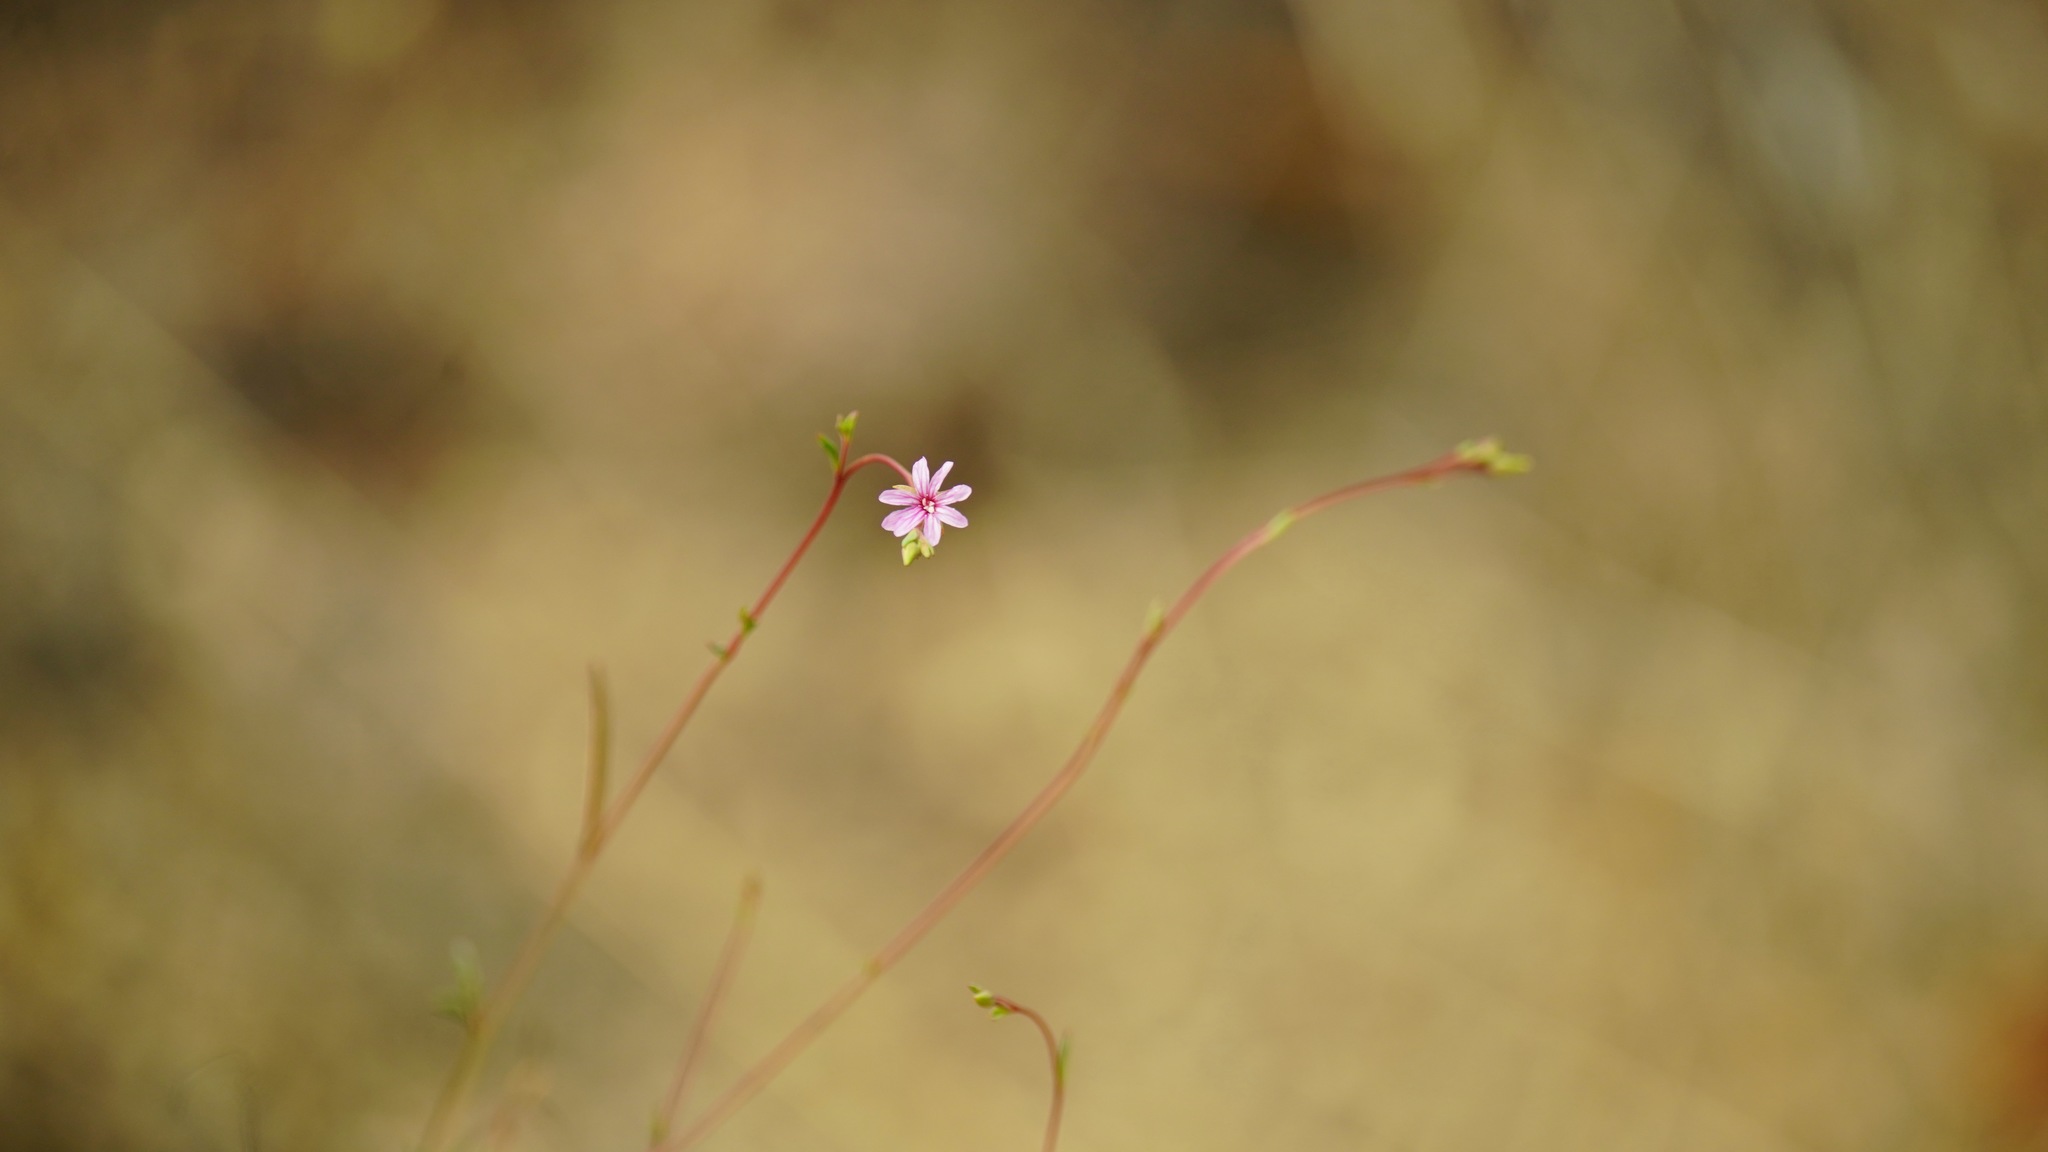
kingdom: Plantae
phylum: Tracheophyta
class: Magnoliopsida
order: Myrtales
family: Onagraceae
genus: Epilobium
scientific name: Epilobium brachycarpum
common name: Annual willowherb
